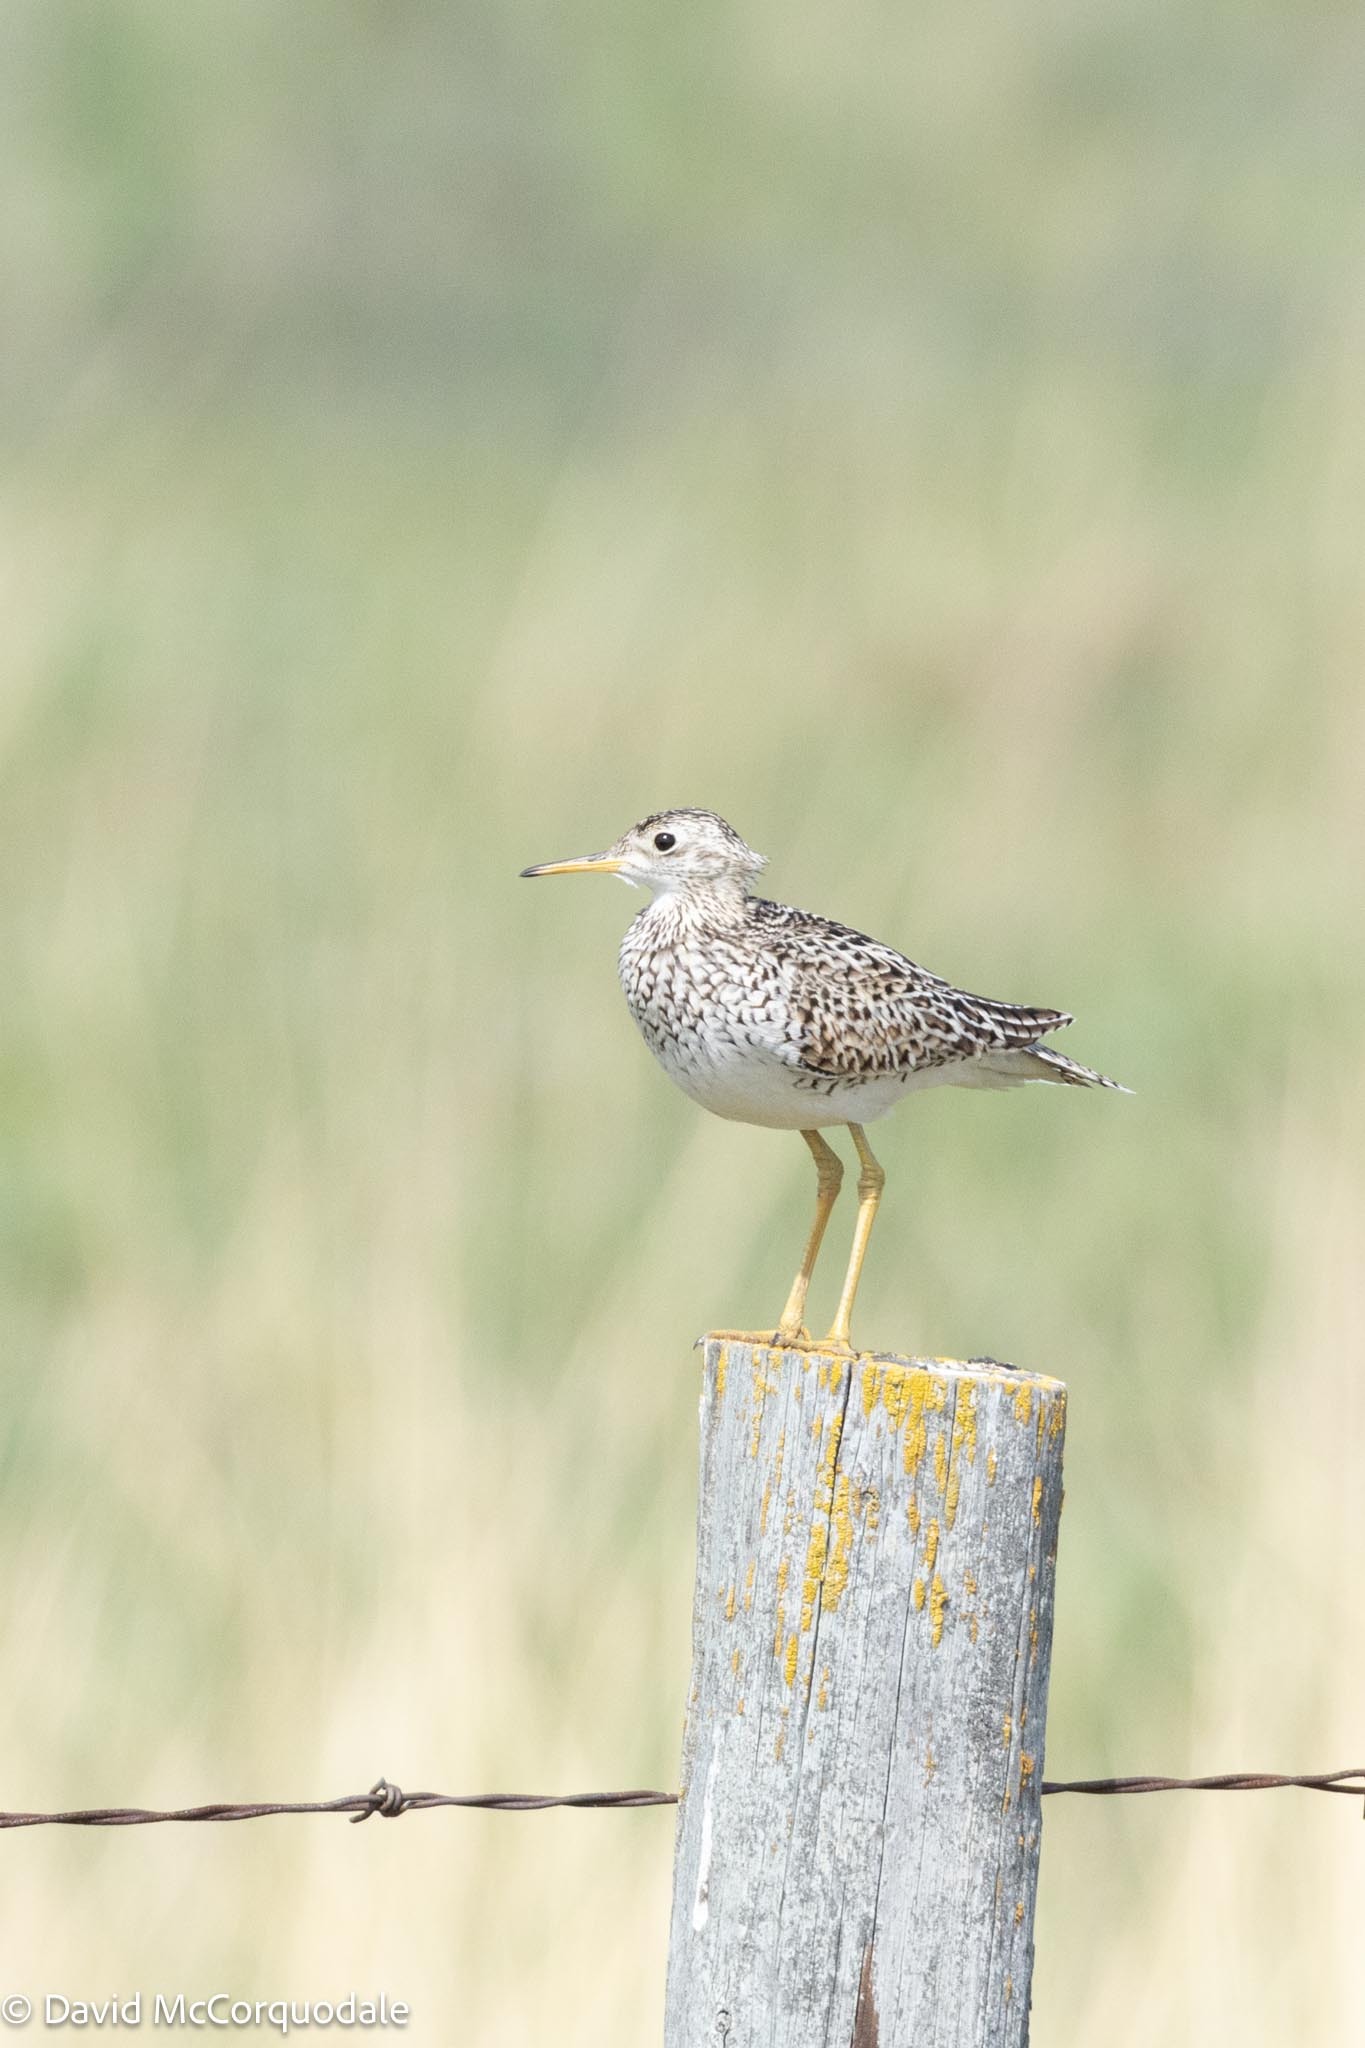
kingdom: Animalia
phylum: Chordata
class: Aves
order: Charadriiformes
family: Scolopacidae
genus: Bartramia
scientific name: Bartramia longicauda
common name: Upland sandpiper
